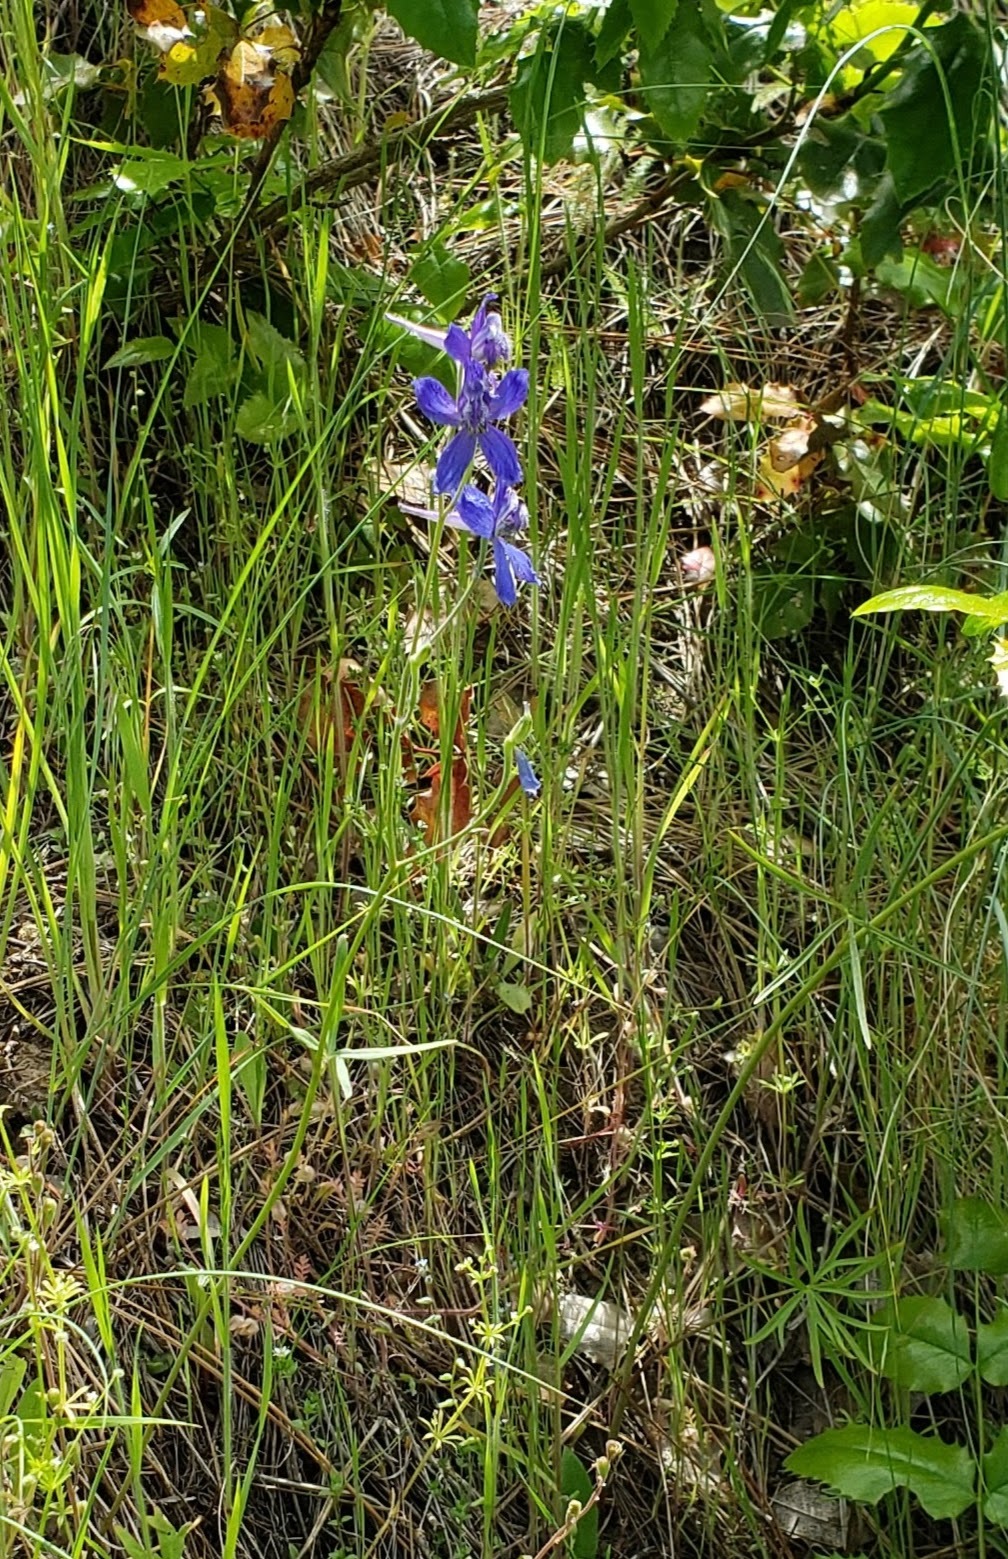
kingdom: Plantae
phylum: Tracheophyta
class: Magnoliopsida
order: Ranunculales
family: Ranunculaceae
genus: Delphinium
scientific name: Delphinium nuttallianum
